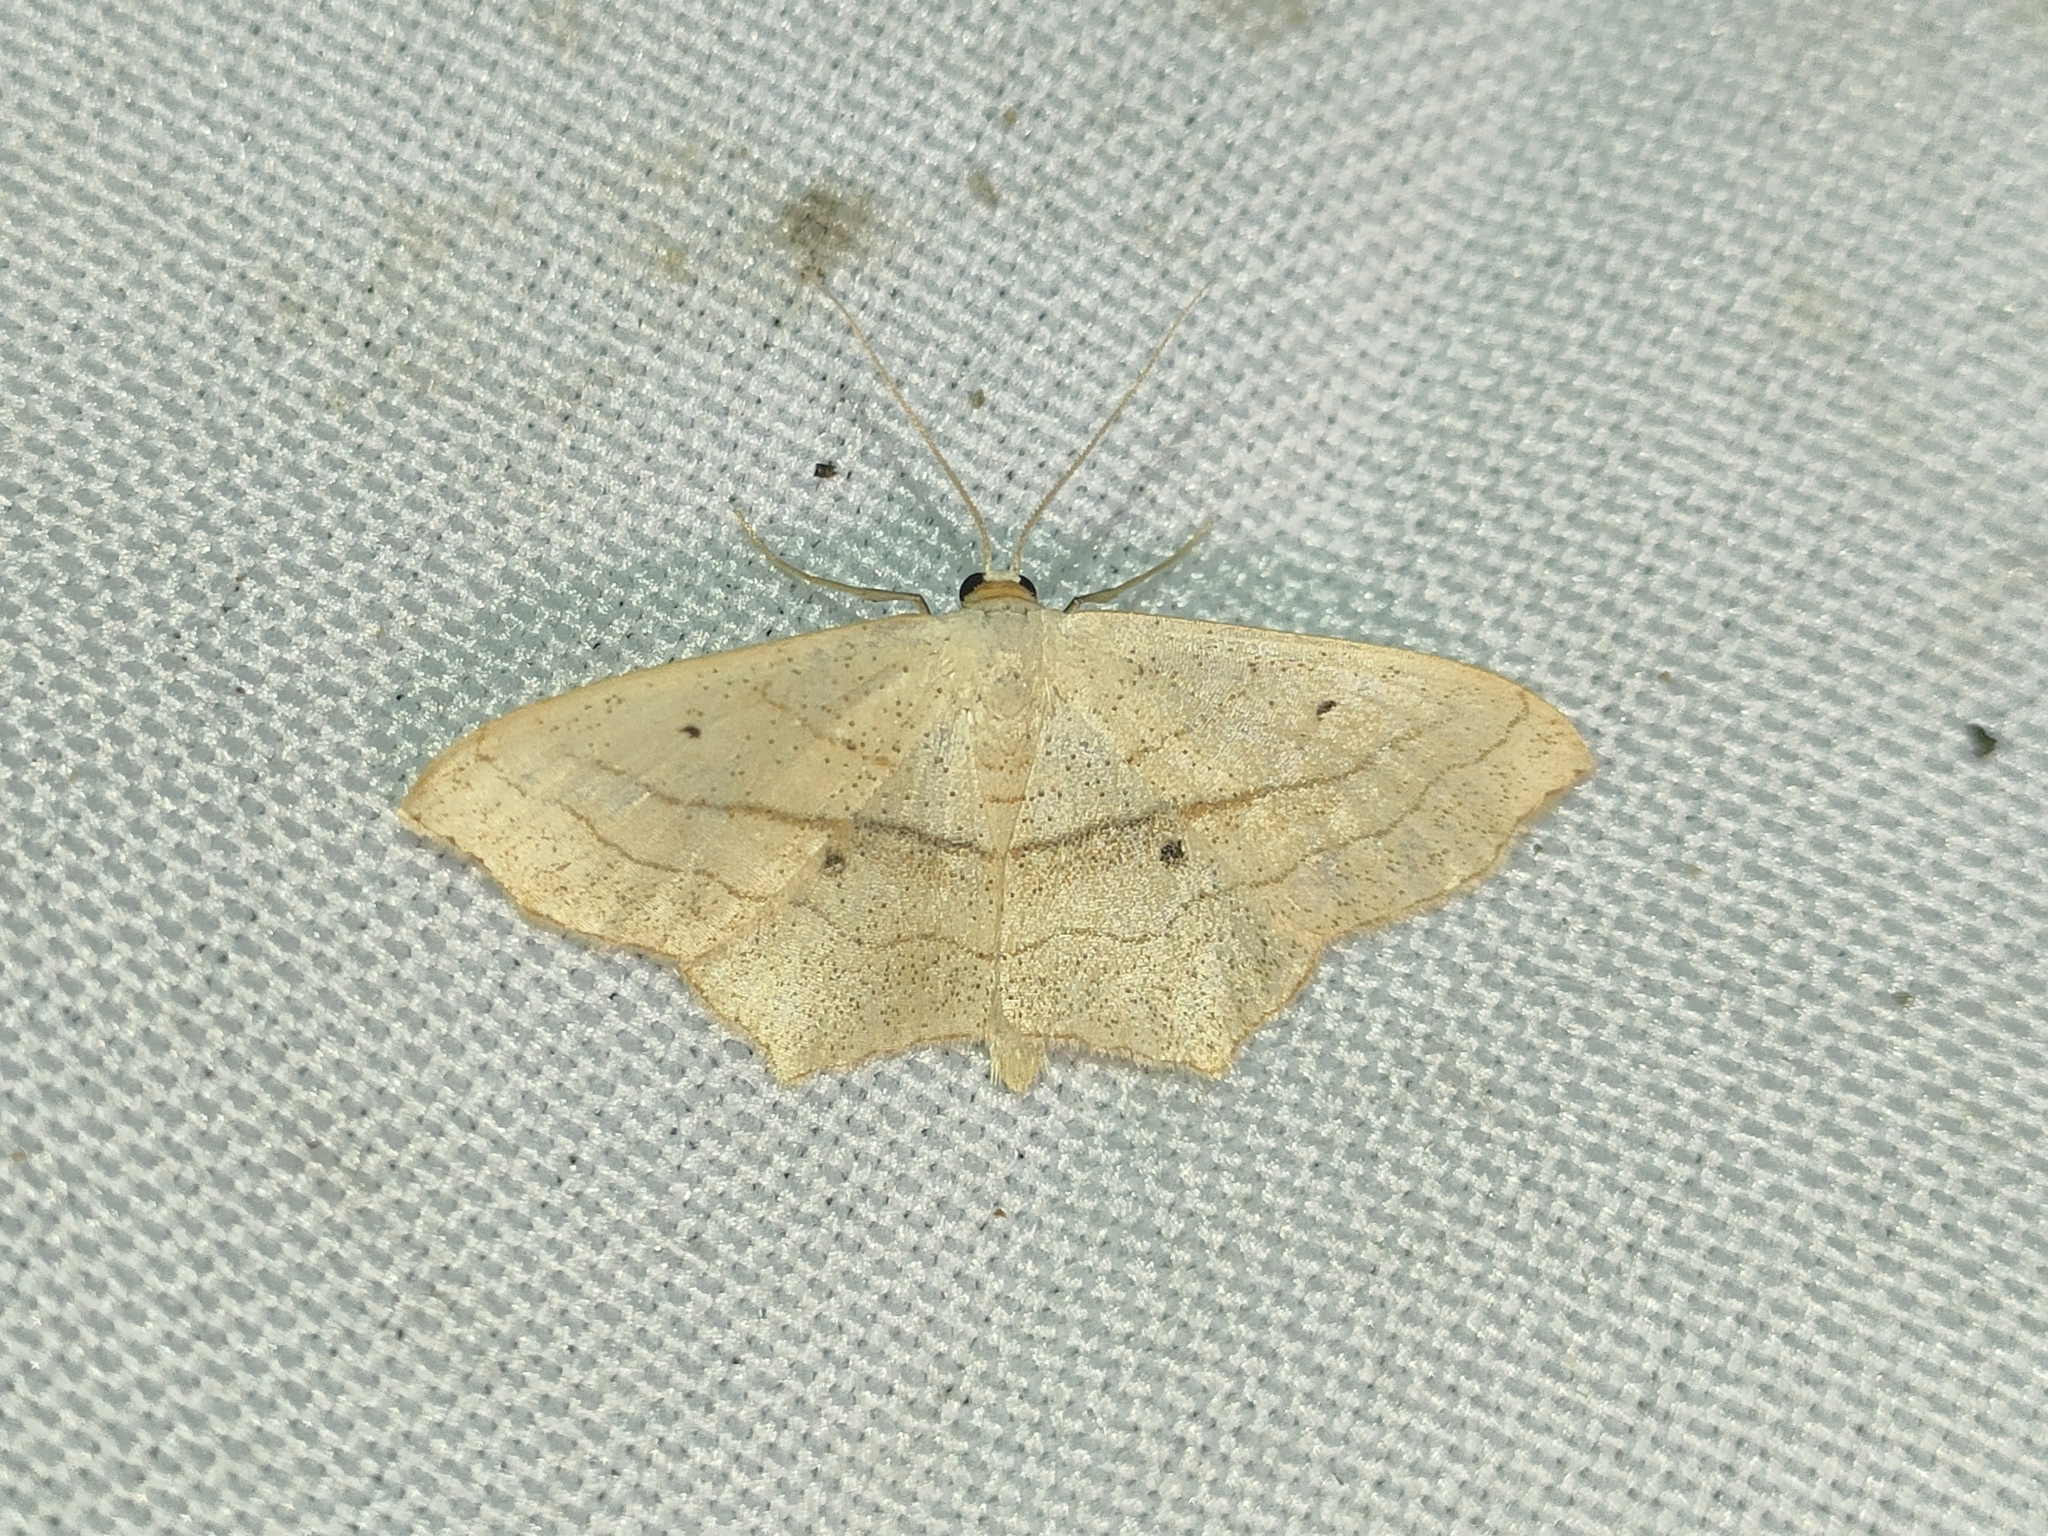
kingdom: Animalia
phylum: Arthropoda
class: Insecta
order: Lepidoptera
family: Geometridae
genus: Scopula
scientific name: Scopula imitaria
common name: Small blood-vein
